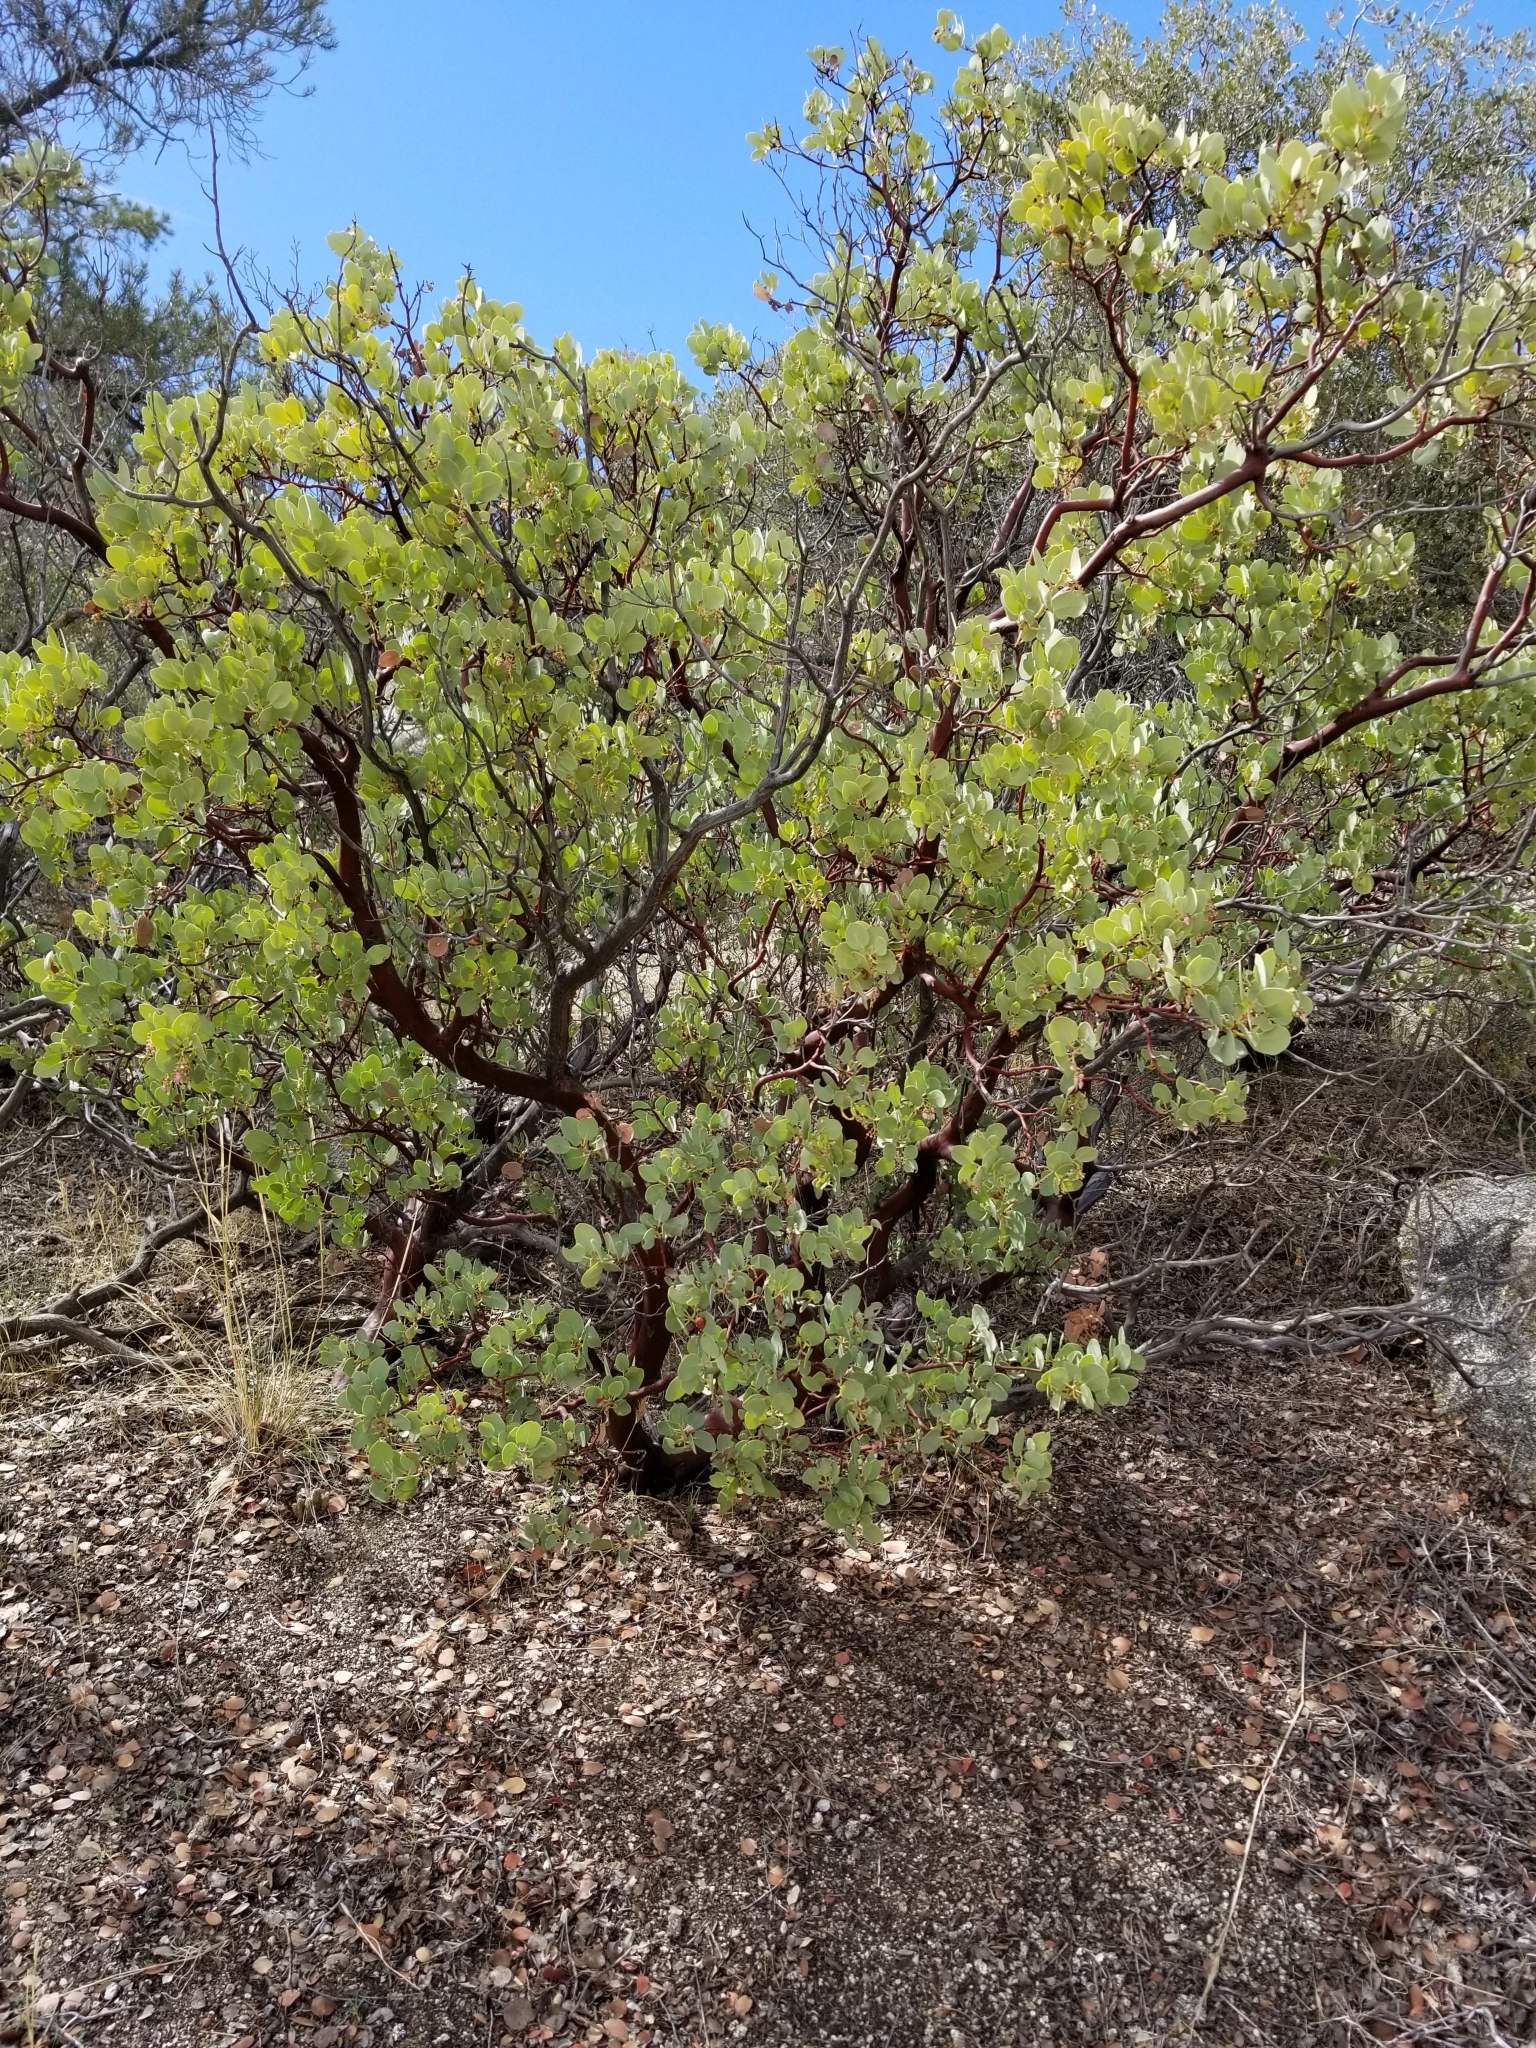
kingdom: Plantae
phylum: Tracheophyta
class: Magnoliopsida
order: Ericales
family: Ericaceae
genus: Arctostaphylos
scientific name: Arctostaphylos glauca
